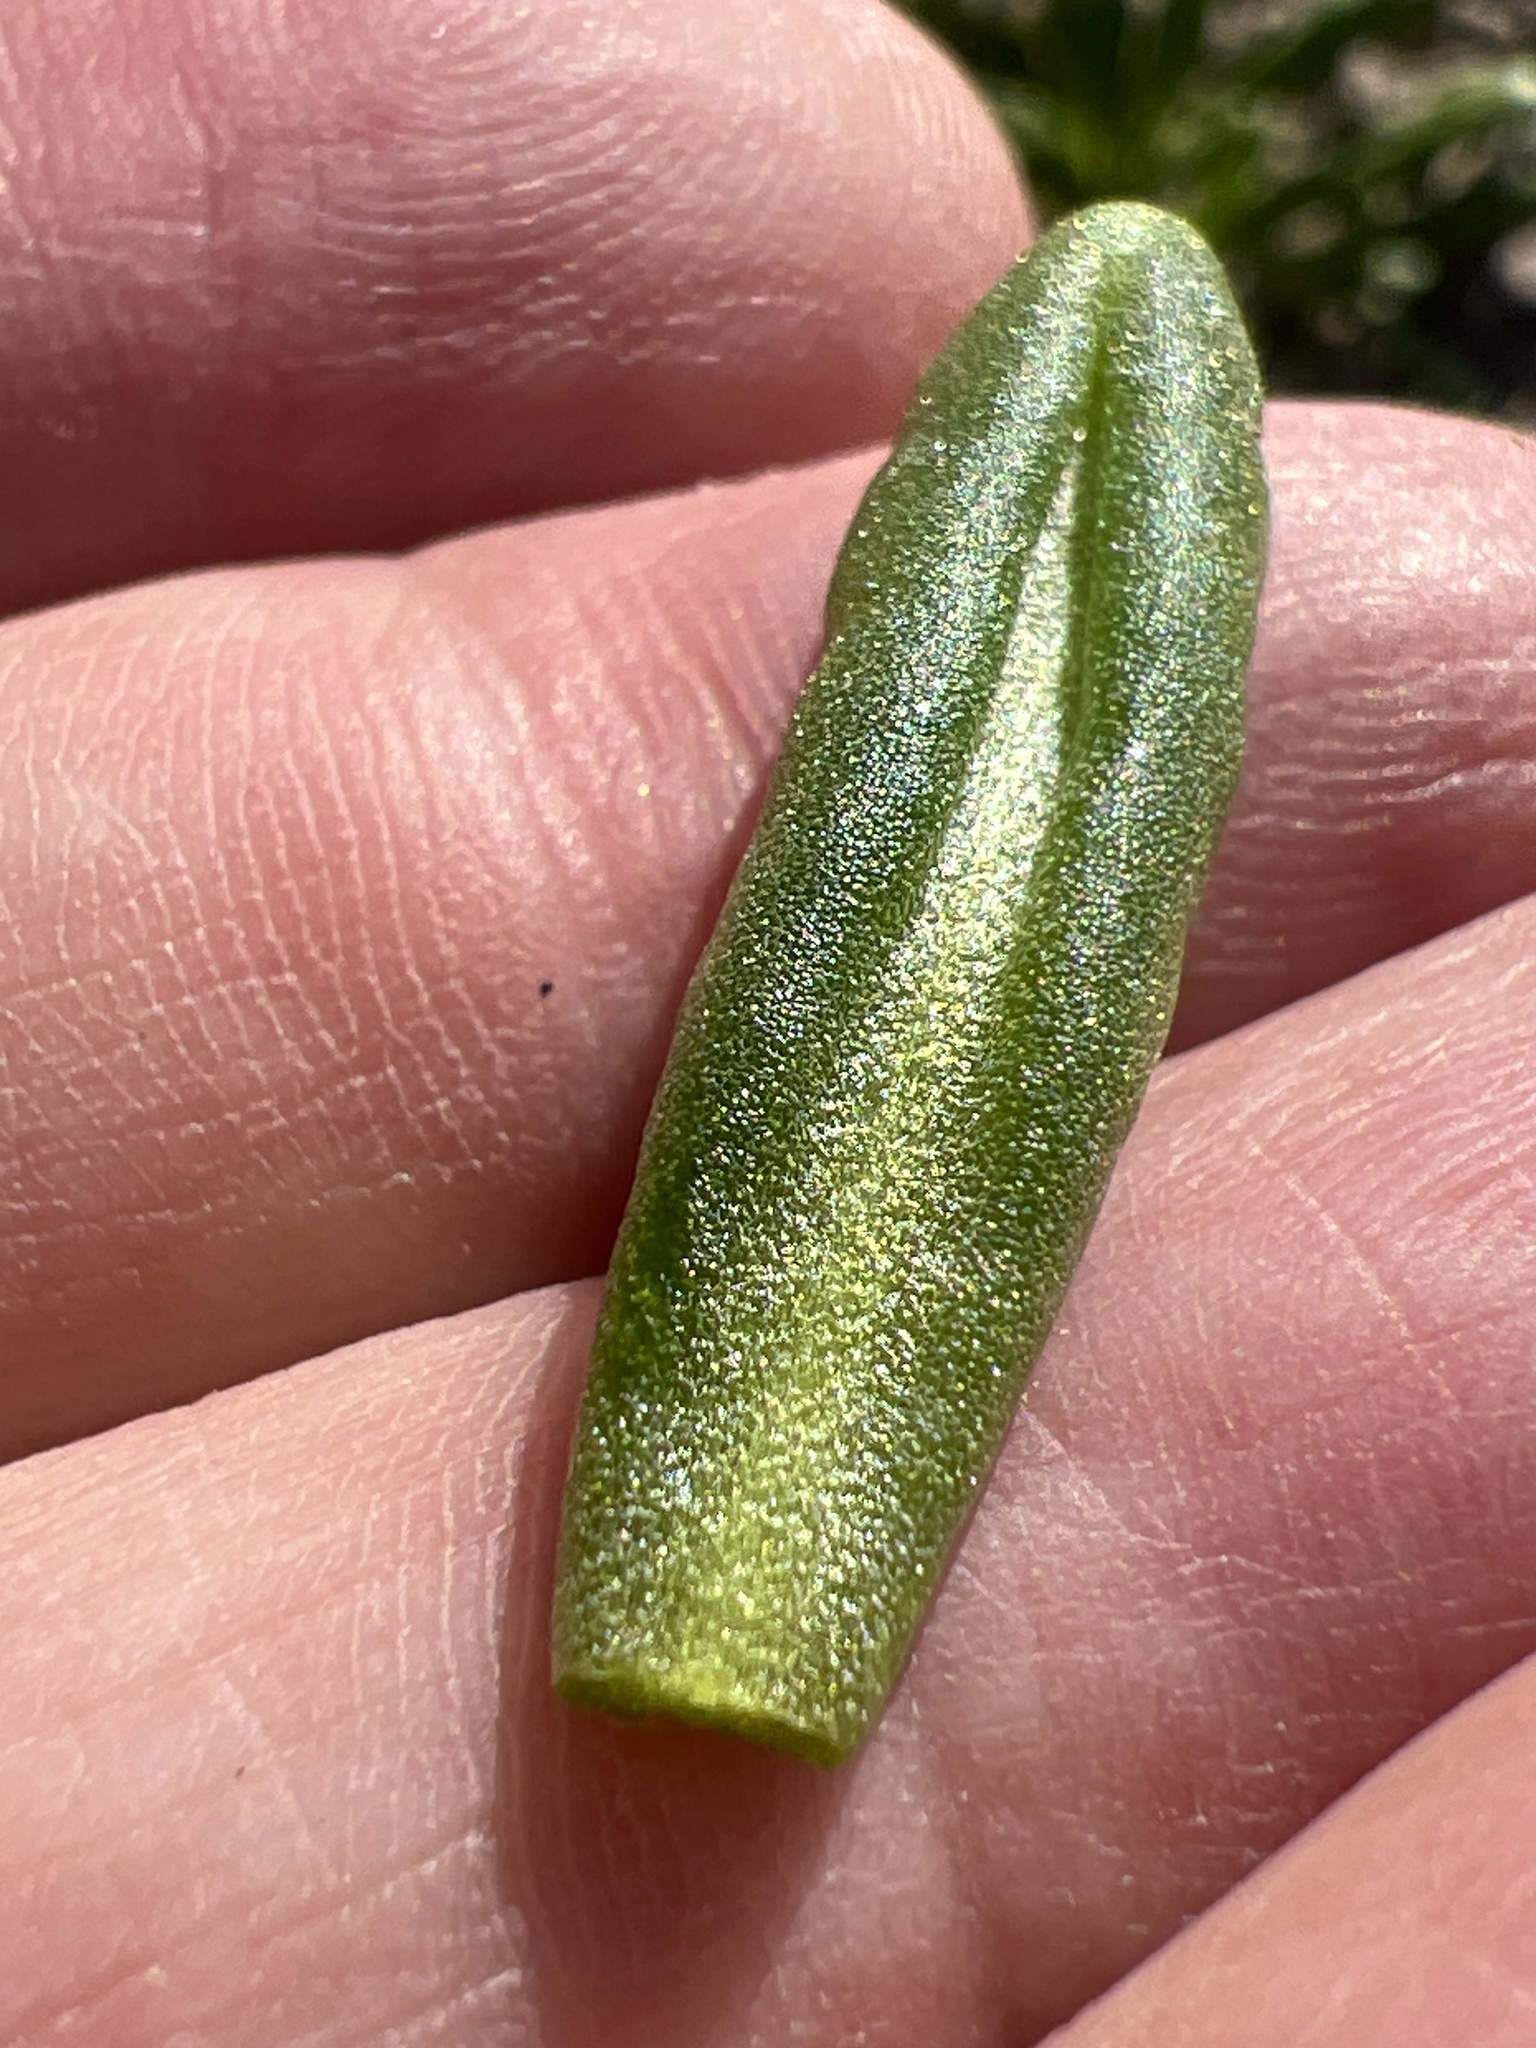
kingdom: Plantae
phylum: Tracheophyta
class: Magnoliopsida
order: Caryophyllales
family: Montiaceae
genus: Thingia
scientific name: Thingia ambigua
